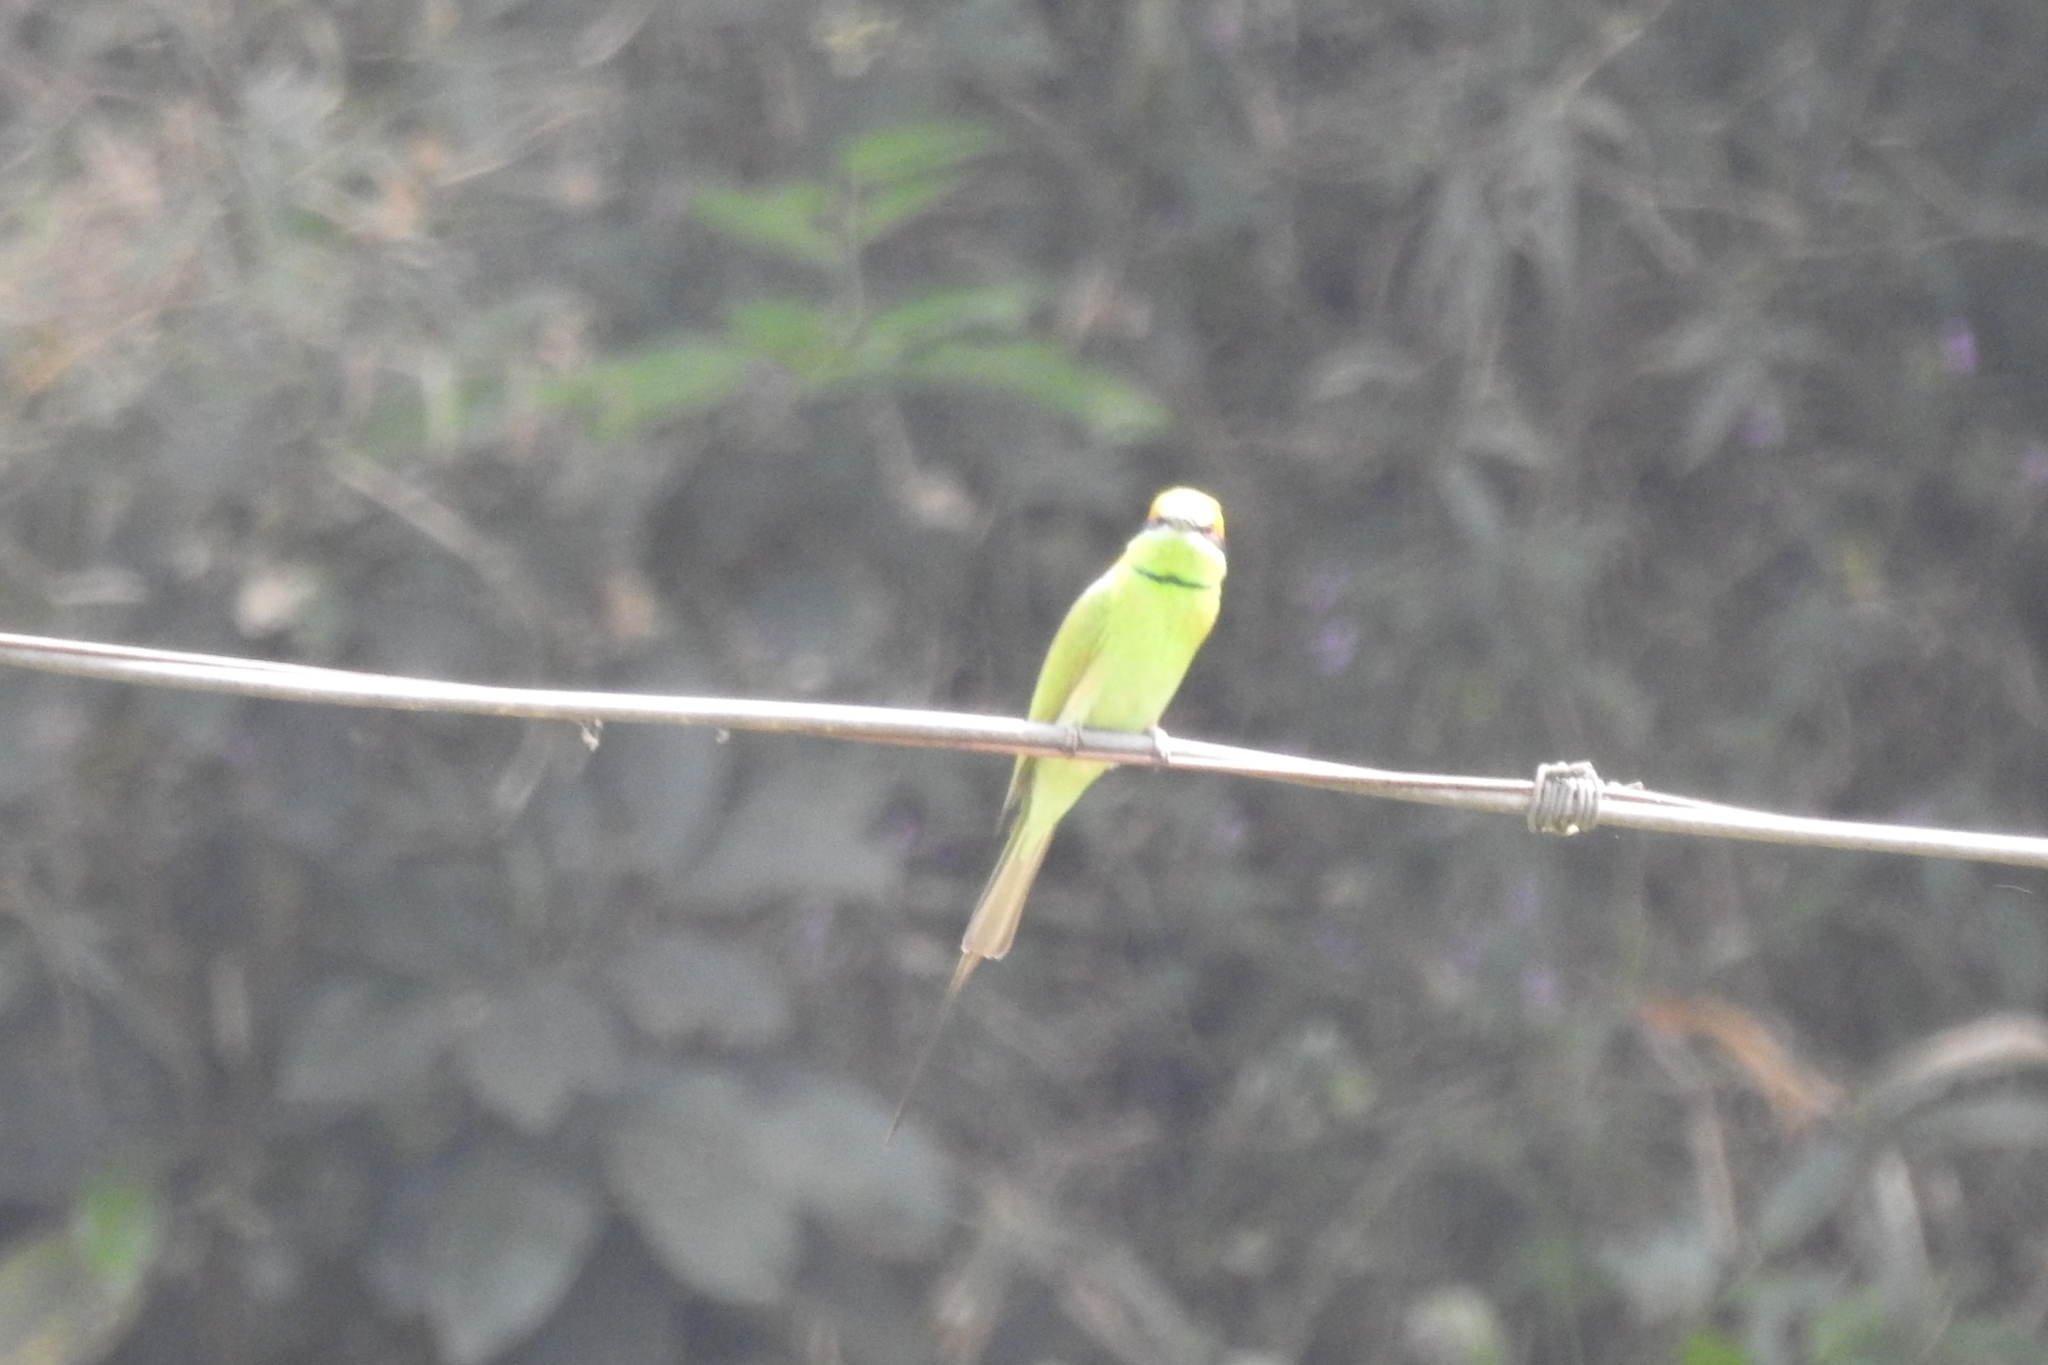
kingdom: Animalia
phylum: Chordata
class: Aves
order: Coraciiformes
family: Meropidae
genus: Merops
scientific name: Merops orientalis
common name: Green bee-eater
